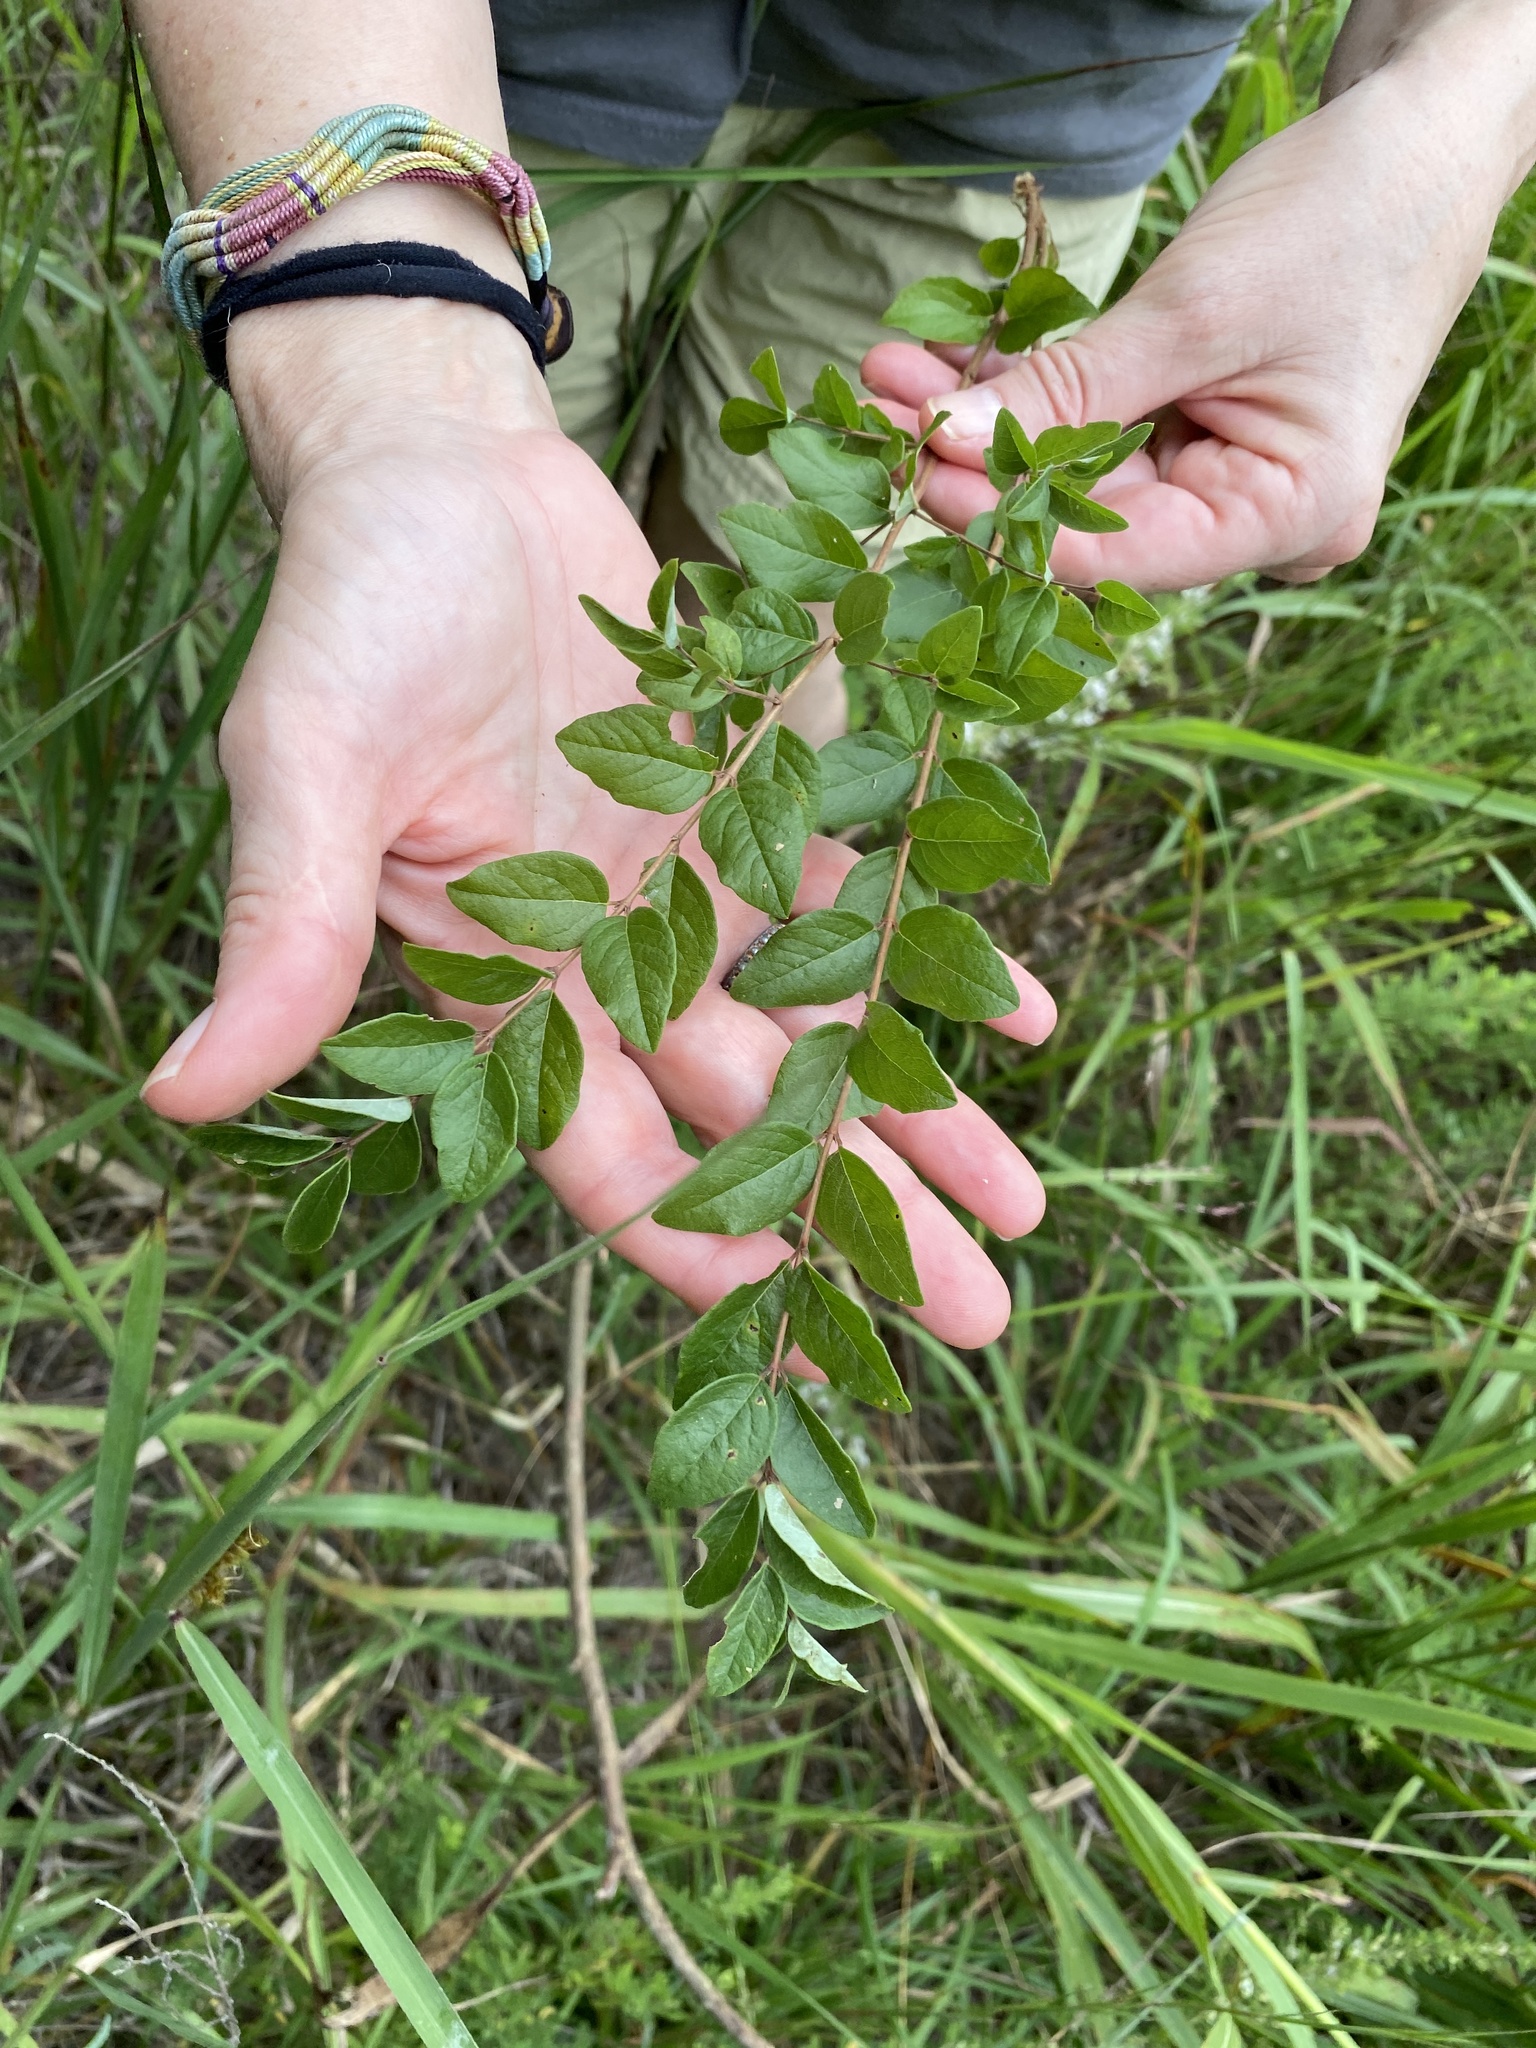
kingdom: Plantae
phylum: Tracheophyta
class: Magnoliopsida
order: Dipsacales
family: Caprifoliaceae
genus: Symphoricarpos
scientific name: Symphoricarpos orbiculatus
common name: Coralberry
